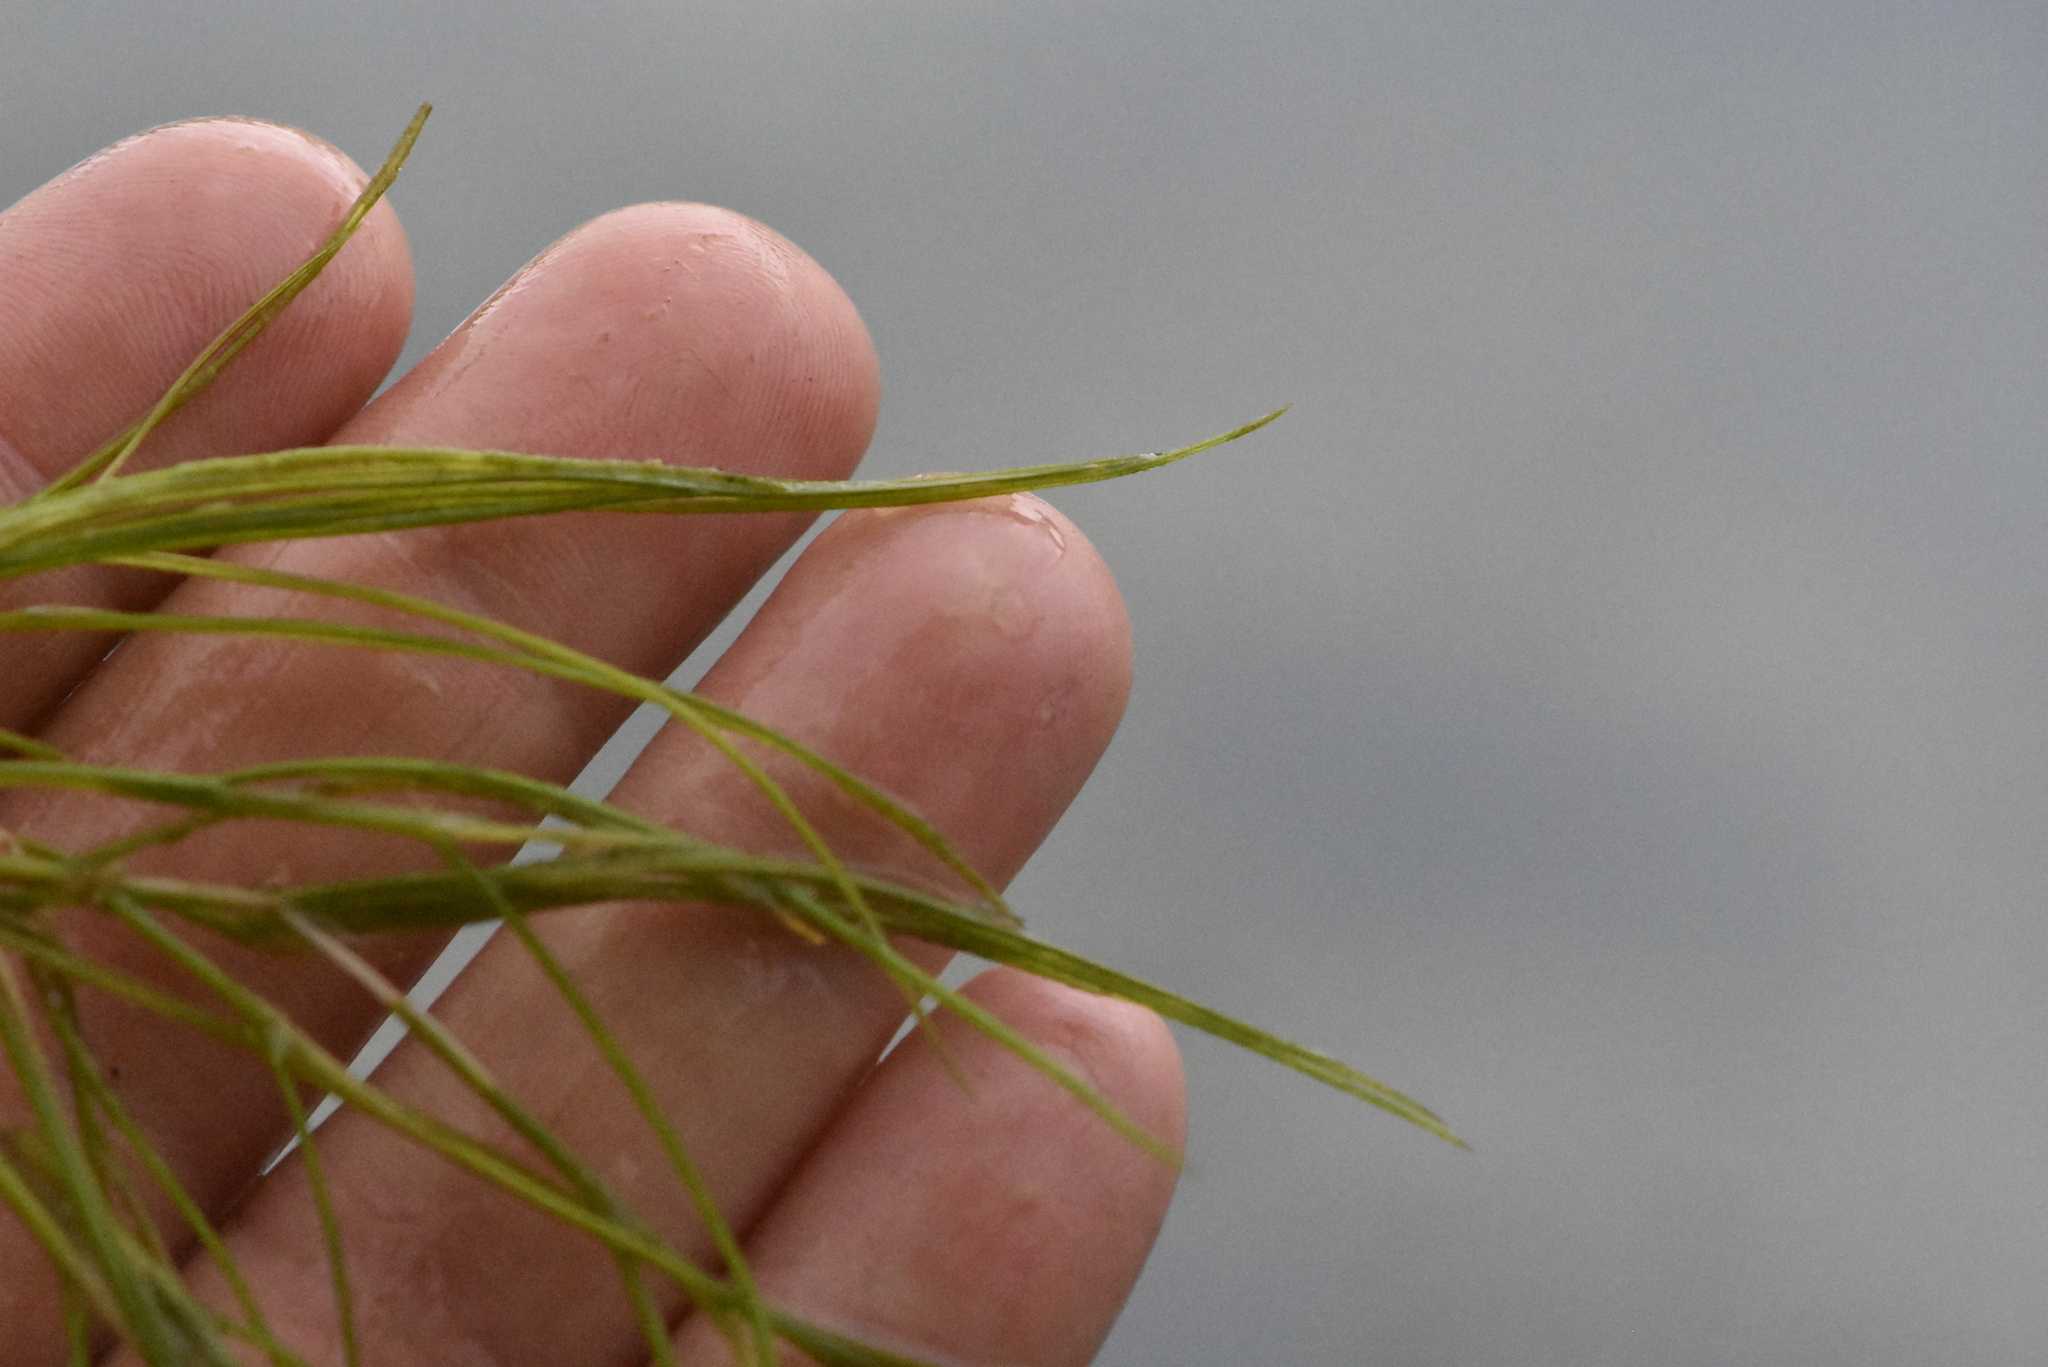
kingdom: Plantae
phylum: Tracheophyta
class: Liliopsida
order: Alismatales
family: Potamogetonaceae
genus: Stuckenia
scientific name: Stuckenia pectinata
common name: Sago pondweed
